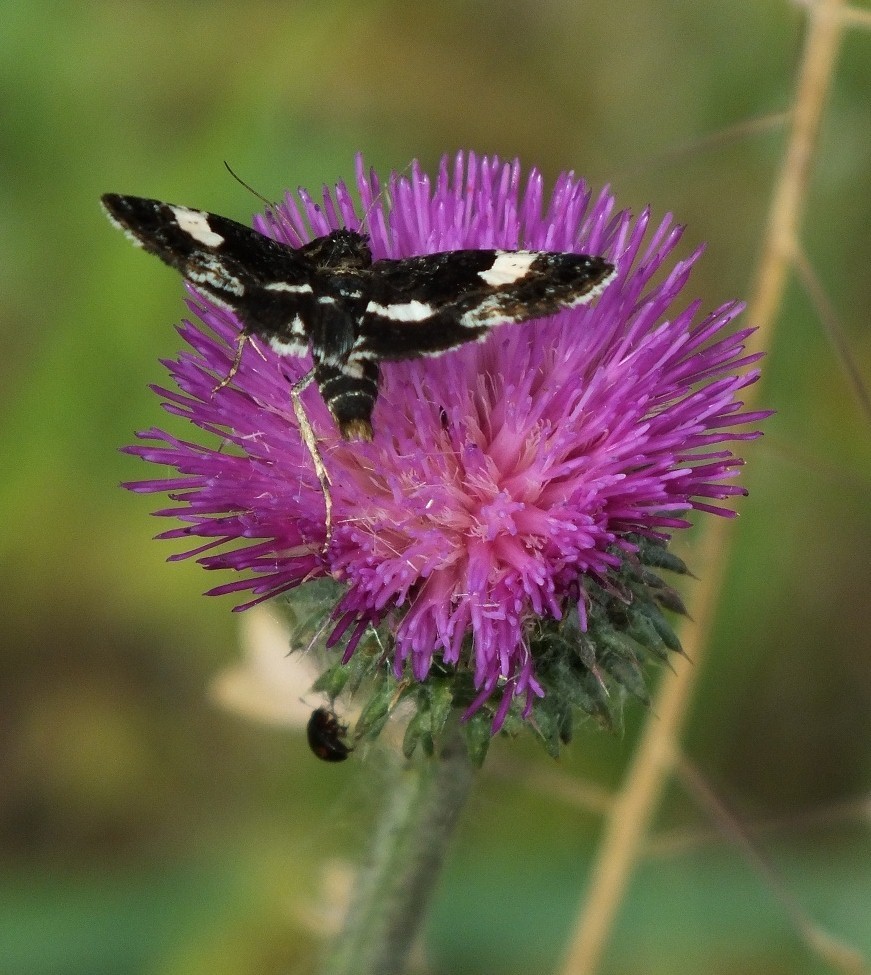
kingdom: Animalia
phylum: Arthropoda
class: Insecta
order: Lepidoptera
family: Erebidae
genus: Tyta
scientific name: Tyta luctuosa
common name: Four-spotted
